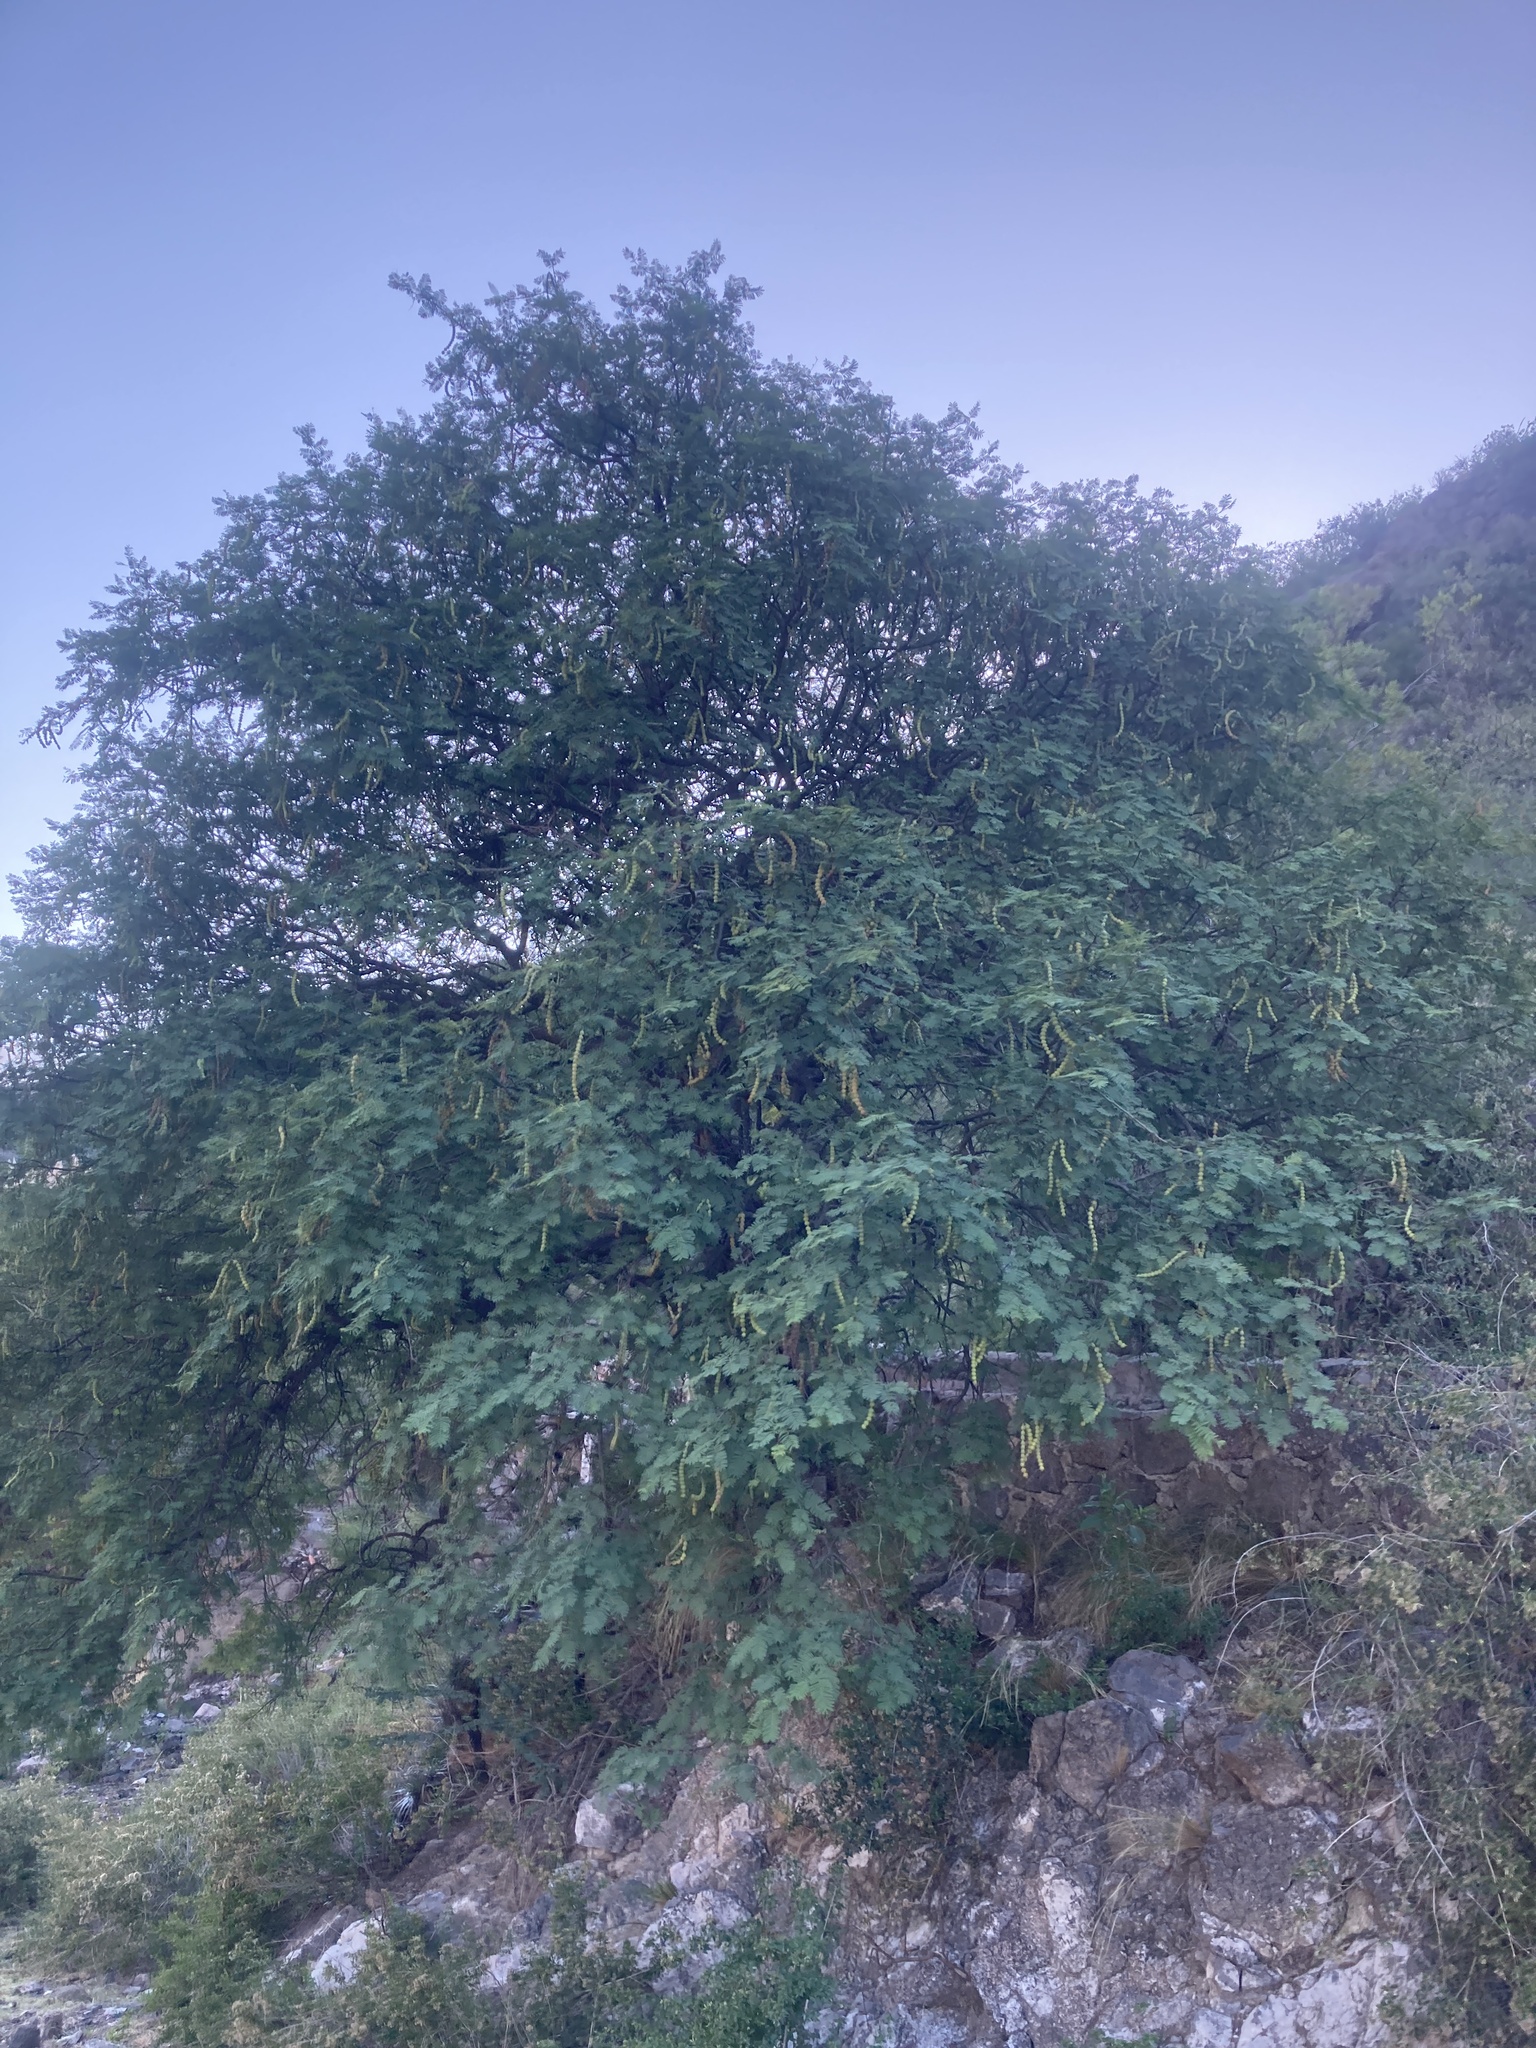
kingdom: Plantae
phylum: Tracheophyta
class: Magnoliopsida
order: Fabales
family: Fabaceae
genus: Vachellia
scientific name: Vachellia aroma
